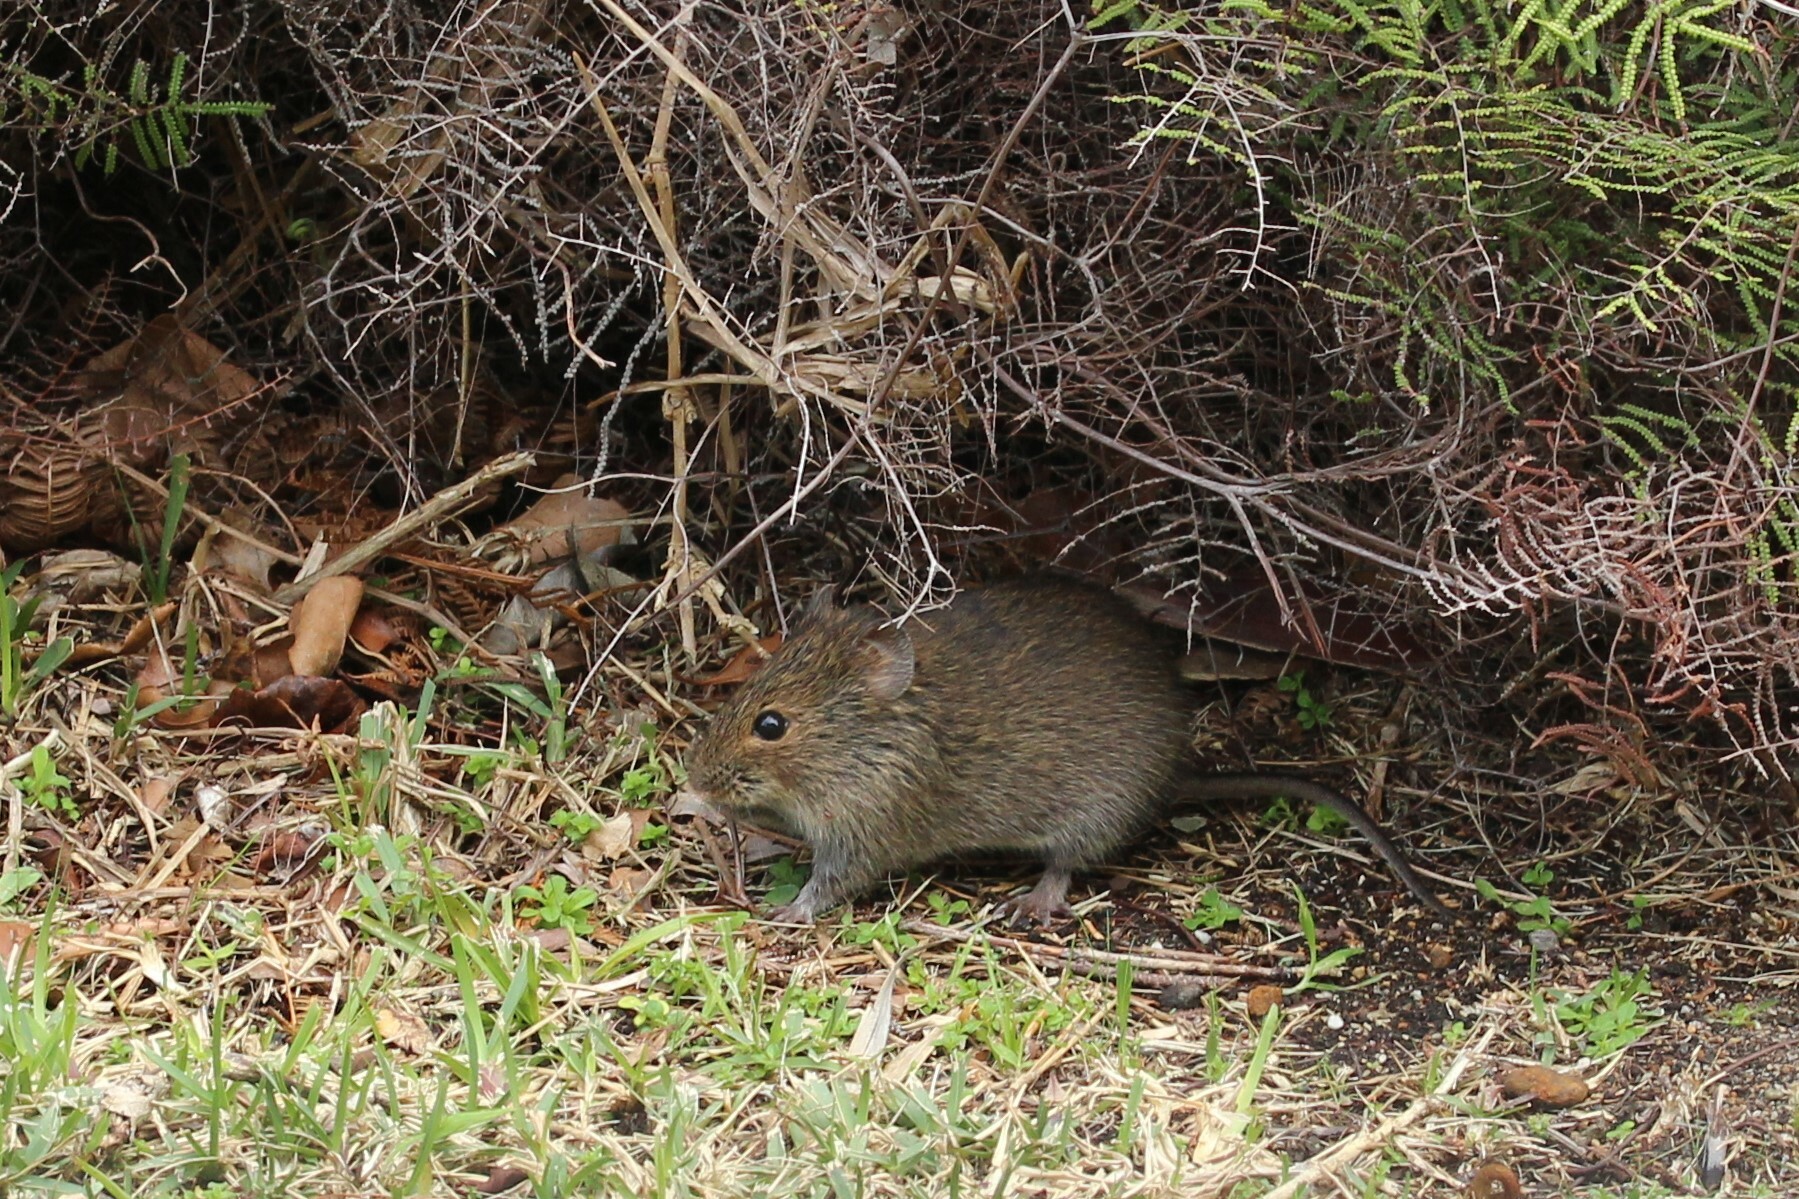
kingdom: Animalia
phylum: Chordata
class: Mammalia
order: Rodentia
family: Muridae
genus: Otomys
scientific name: Otomys irroratus
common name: Southern african vlei rat
